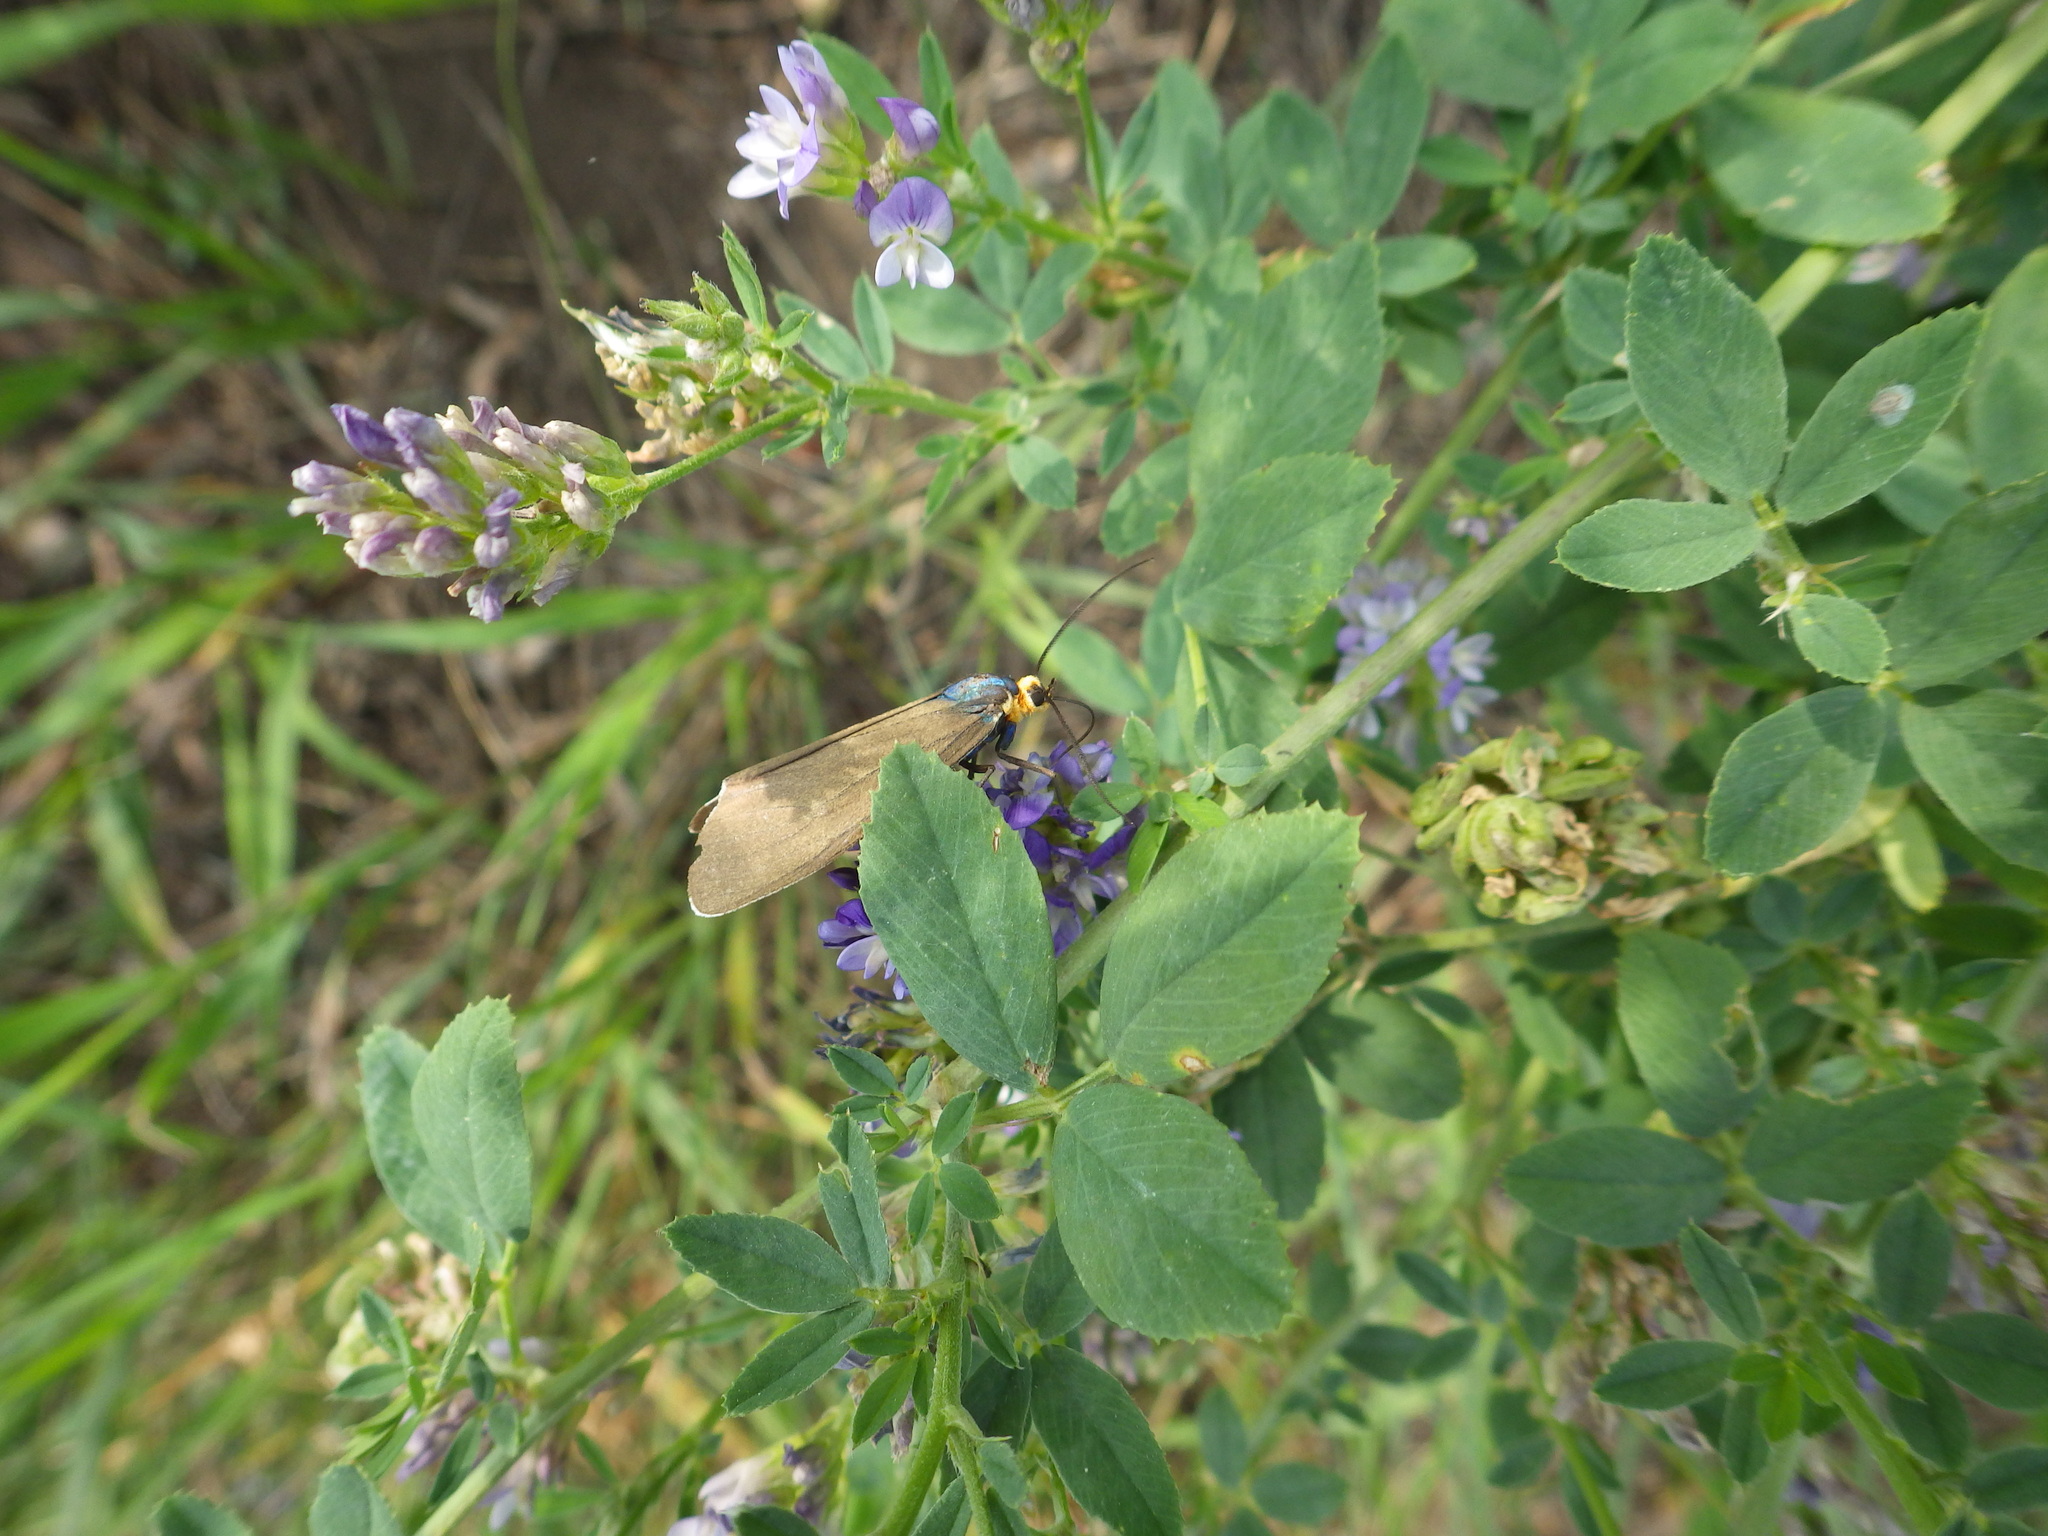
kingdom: Animalia
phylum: Arthropoda
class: Insecta
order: Lepidoptera
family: Erebidae
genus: Ctenucha
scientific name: Ctenucha virginica
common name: Virginia ctenucha moth
